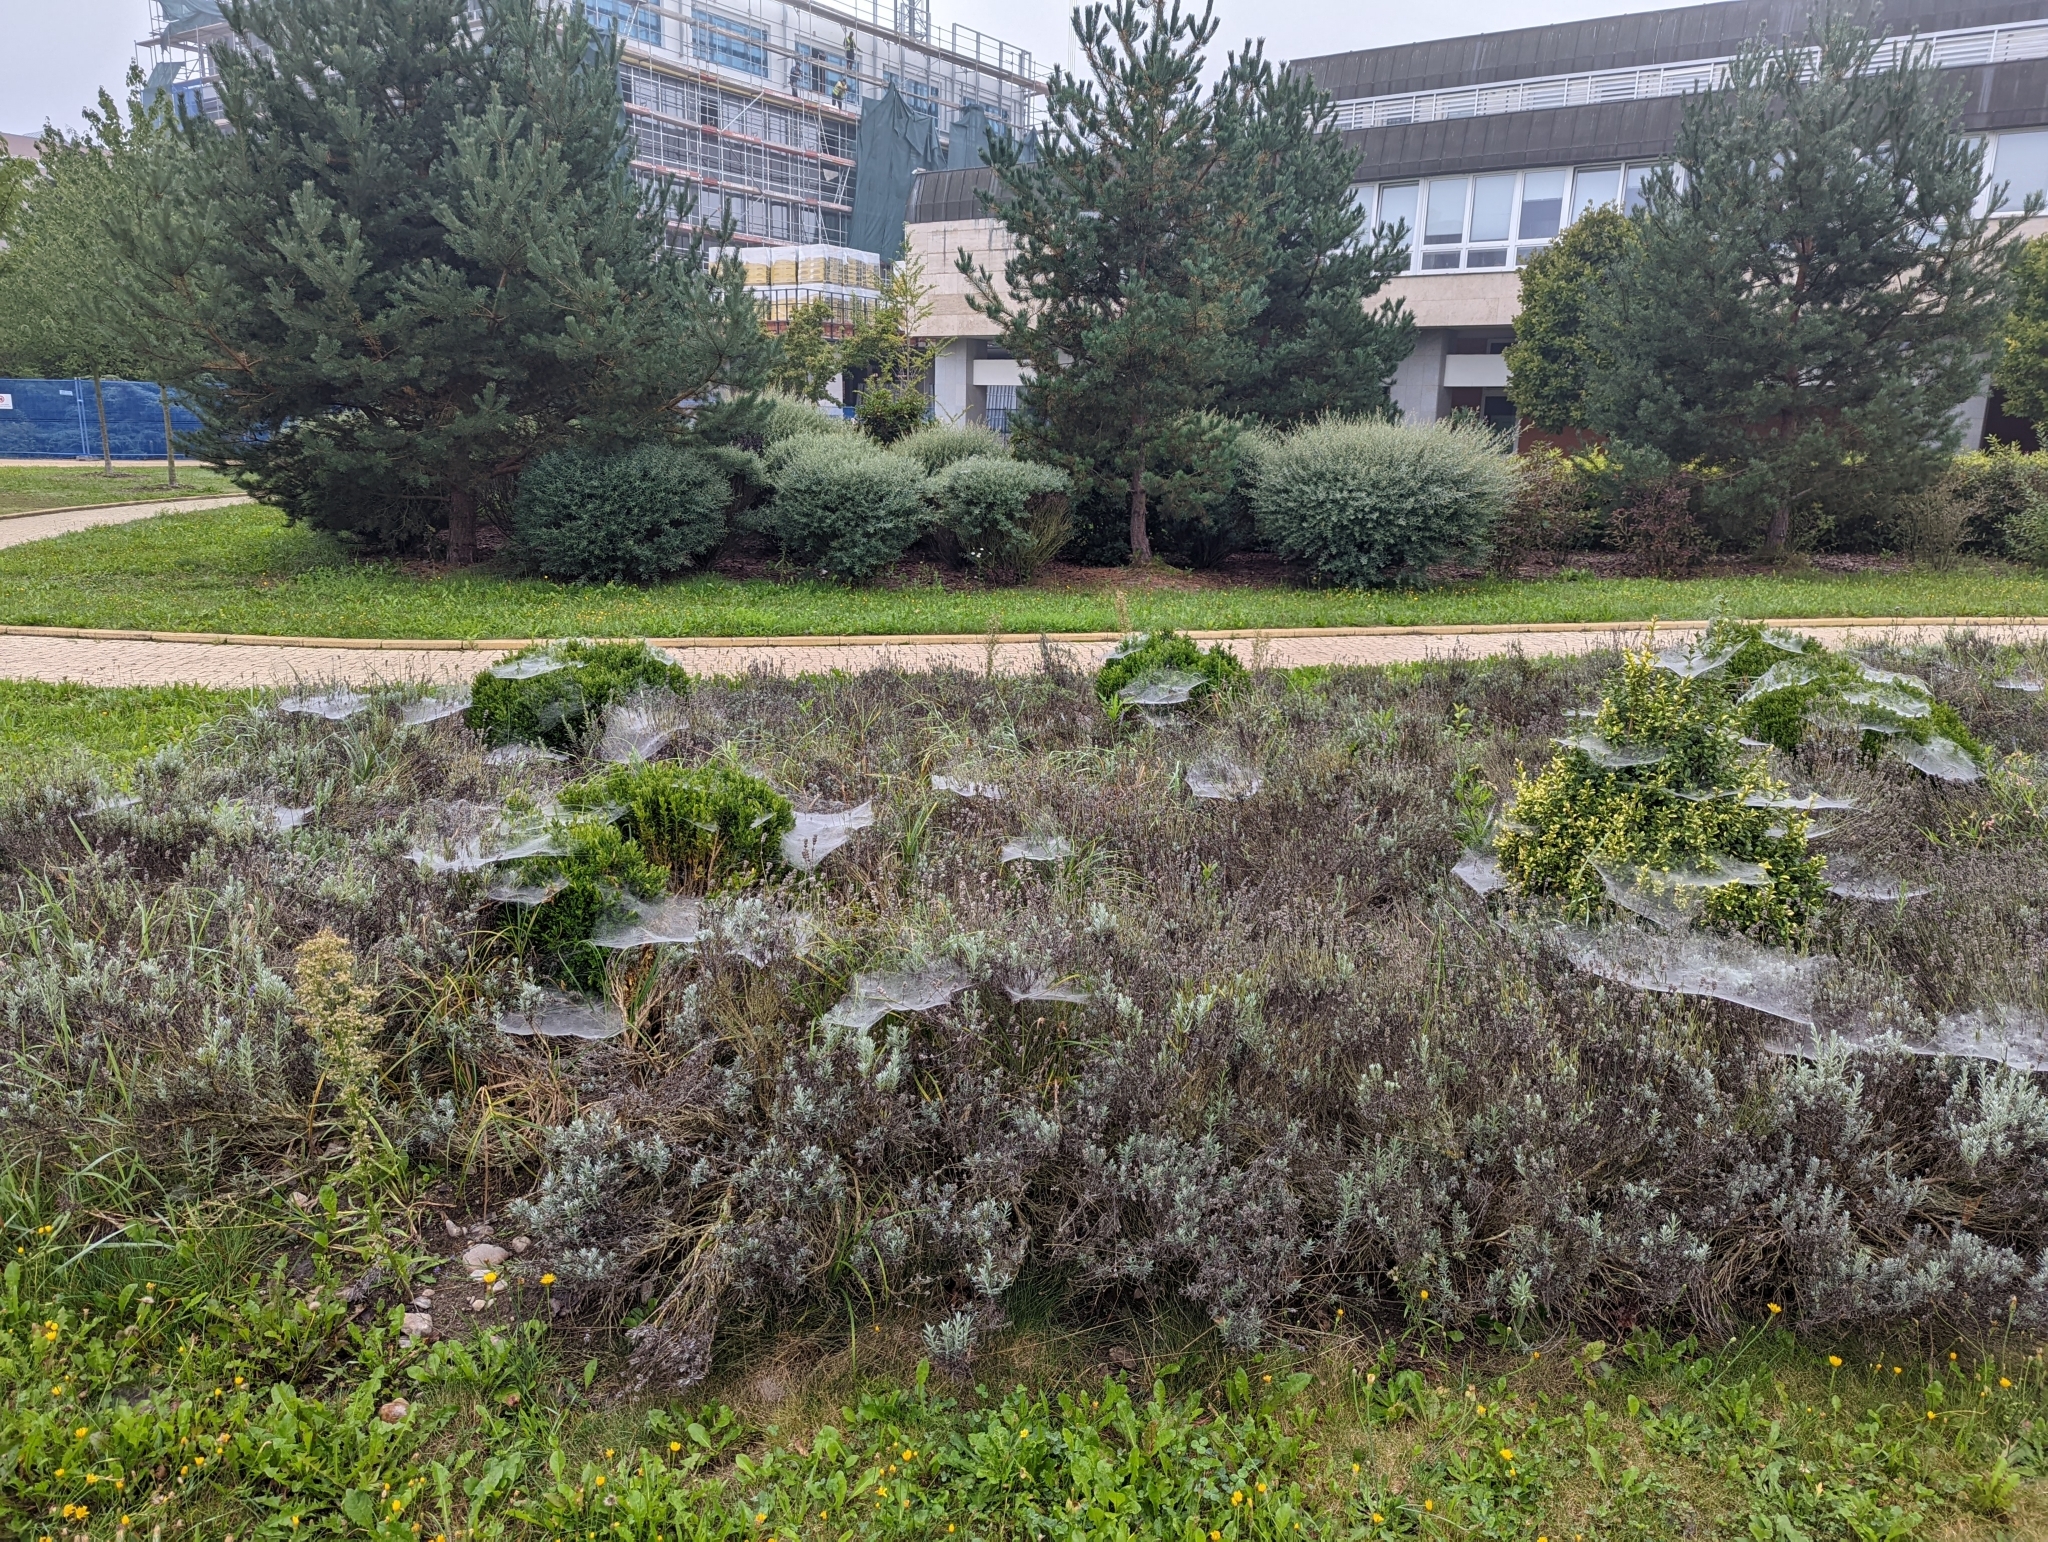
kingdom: Animalia
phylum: Arthropoda
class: Arachnida
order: Araneae
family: Agelenidae
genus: Allagelena
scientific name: Allagelena gracilens
